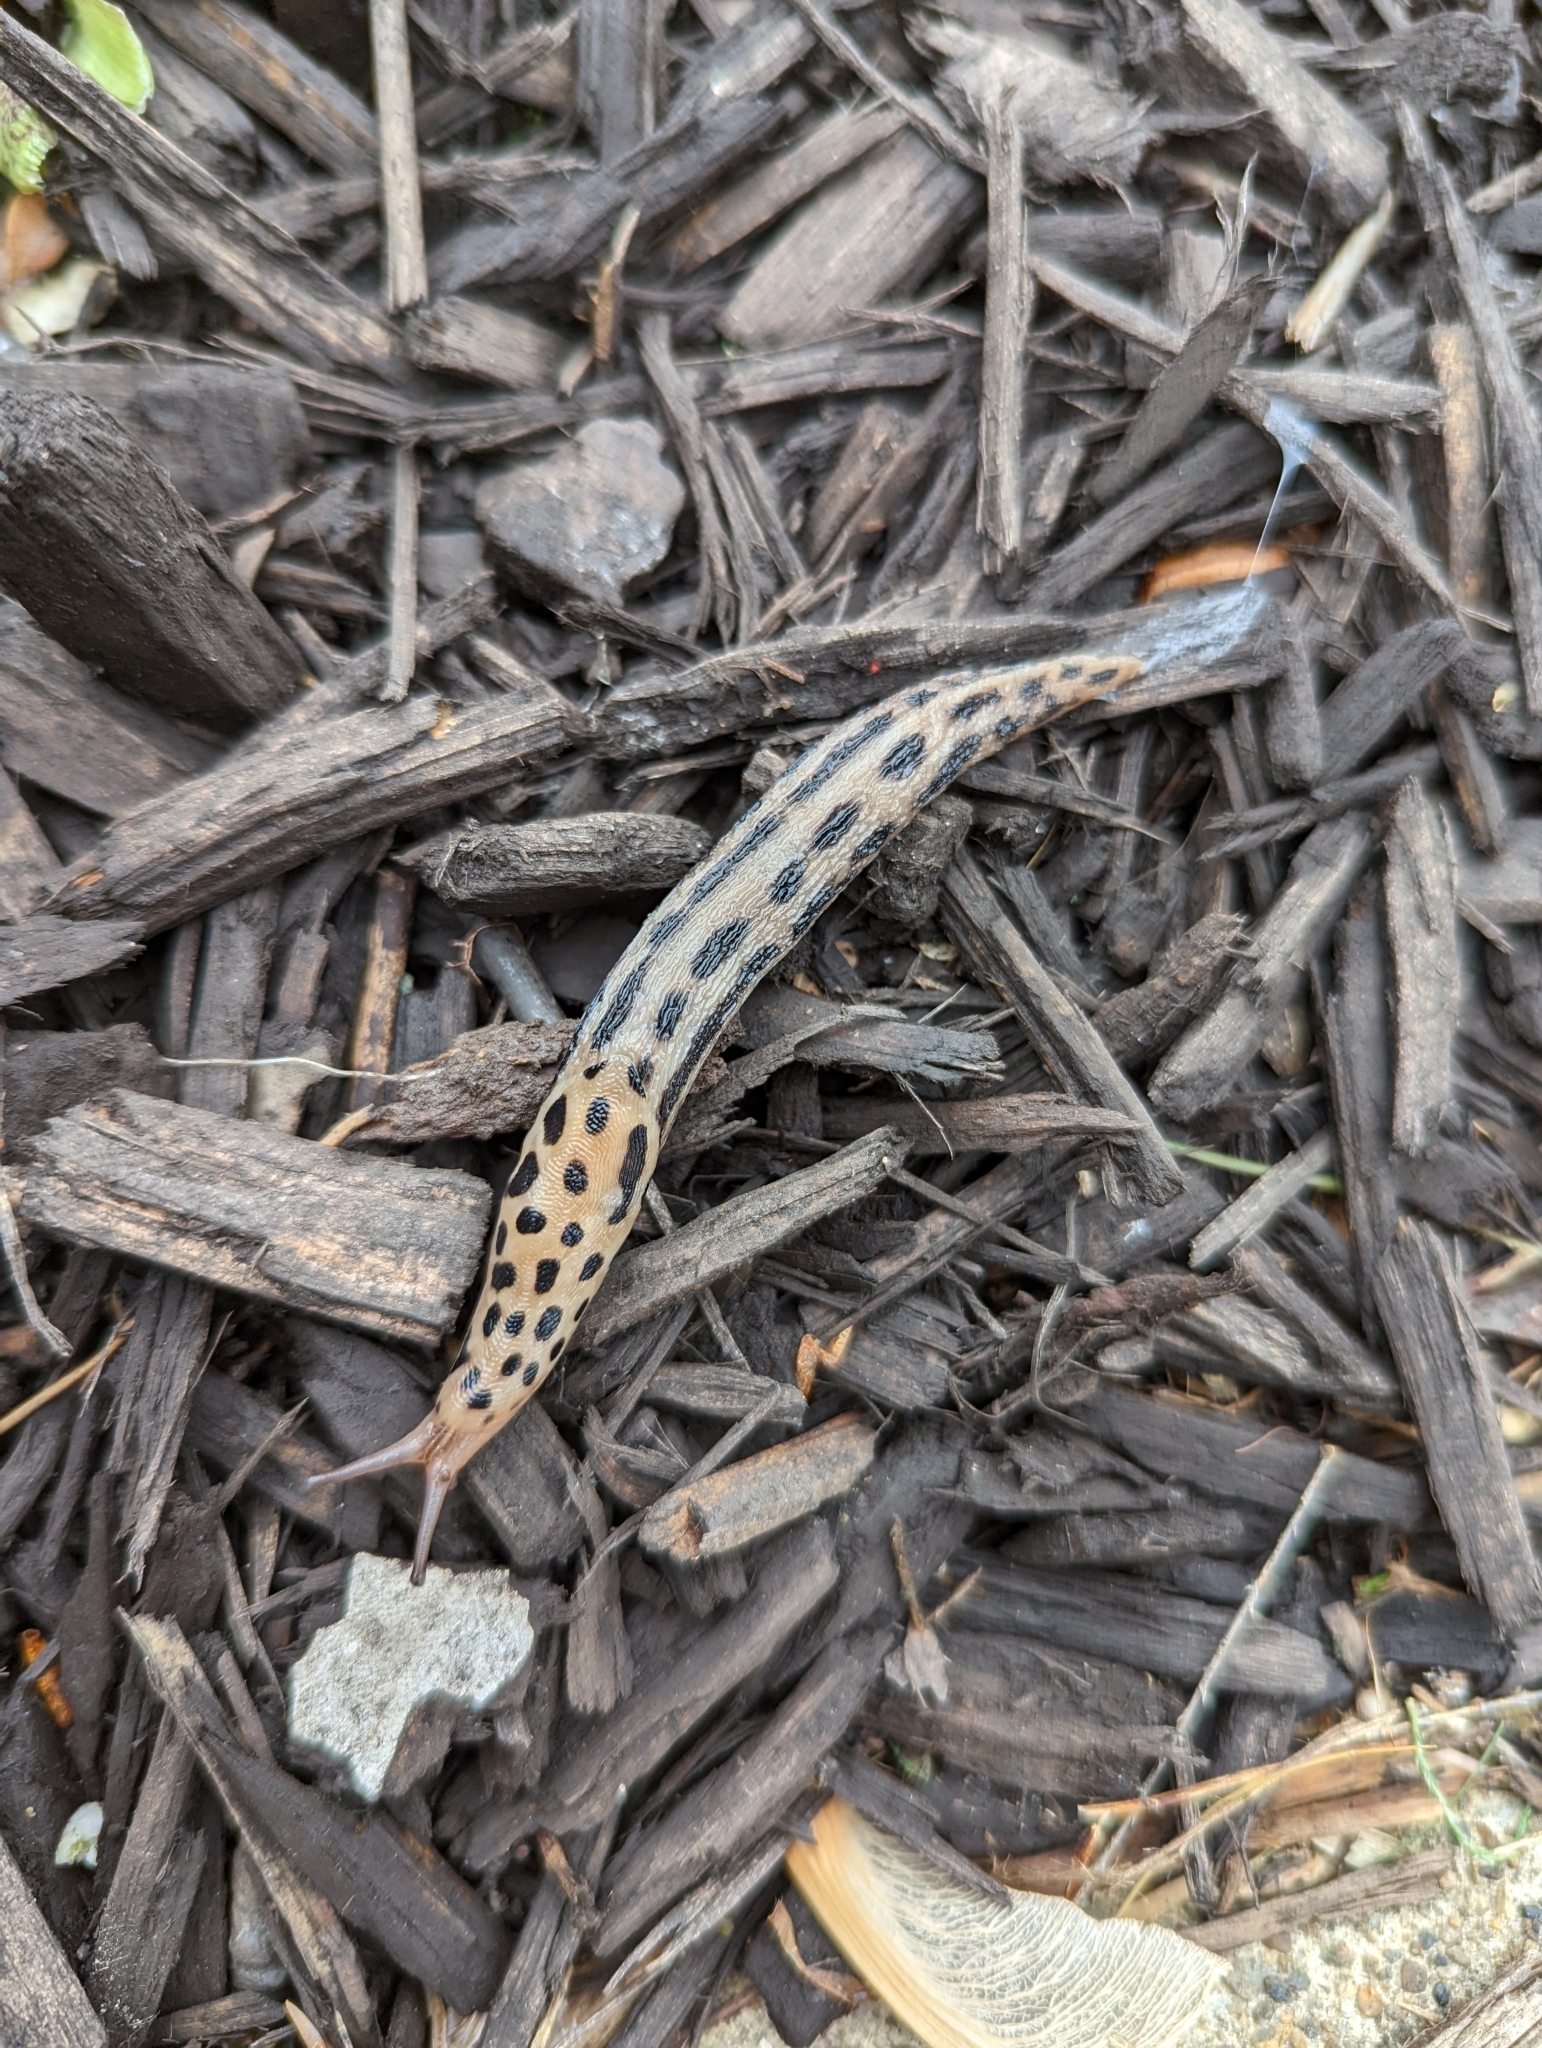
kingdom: Animalia
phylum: Mollusca
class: Gastropoda
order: Stylommatophora
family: Limacidae
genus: Limax
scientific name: Limax maximus
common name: Great grey slug
